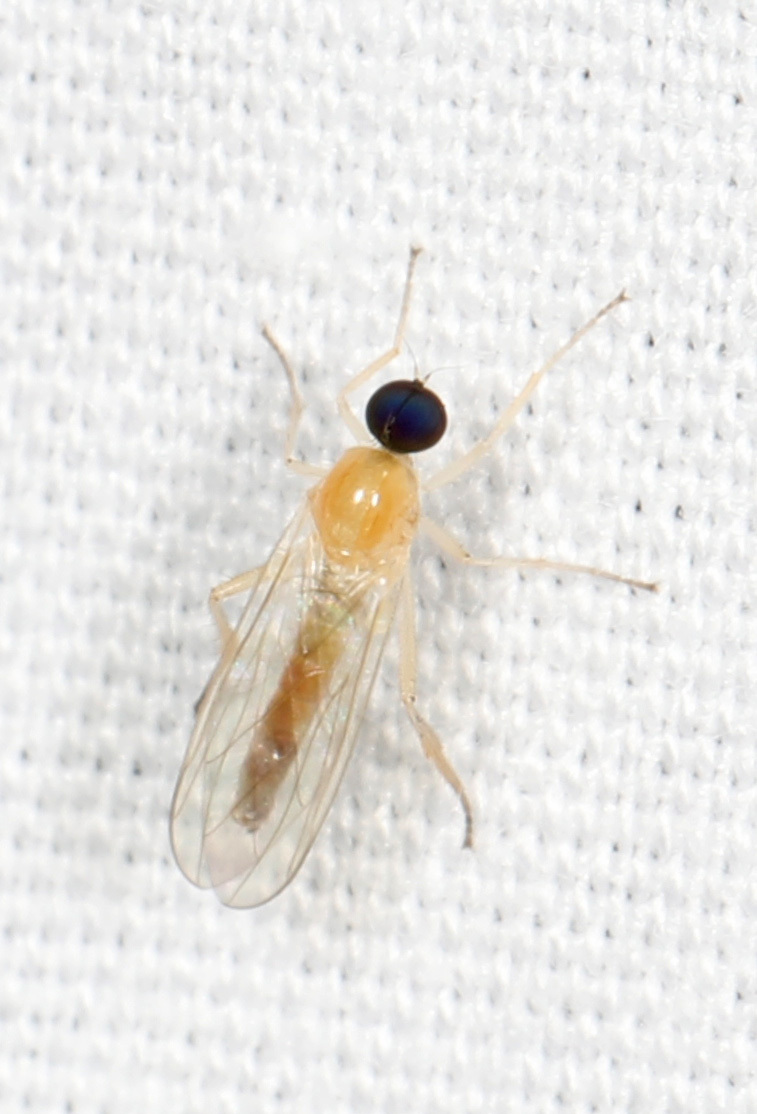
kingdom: Animalia
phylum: Arthropoda
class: Insecta
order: Diptera
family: Hybotidae
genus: Leptopeza
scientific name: Leptopeza compta
